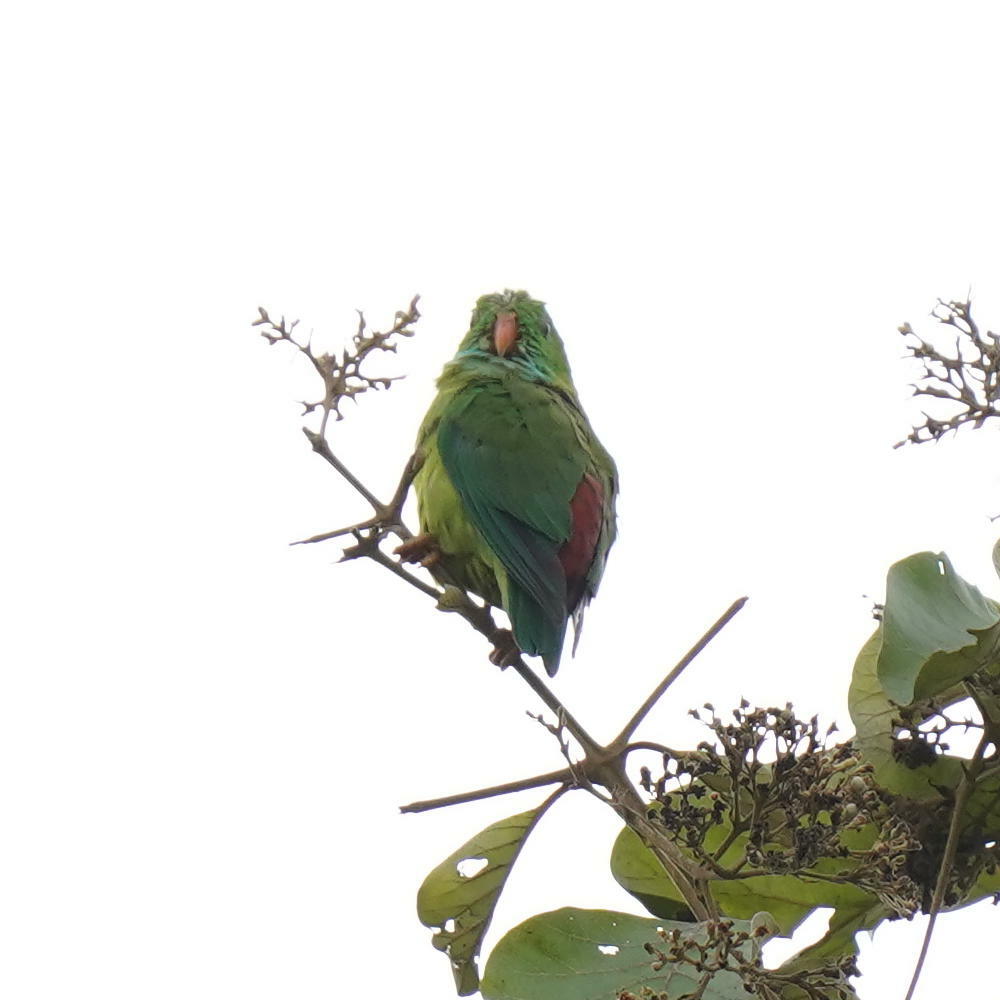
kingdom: Animalia
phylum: Chordata
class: Aves
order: Psittaciformes
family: Psittacidae
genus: Loriculus
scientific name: Loriculus vernalis
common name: Vernal hanging parrot
